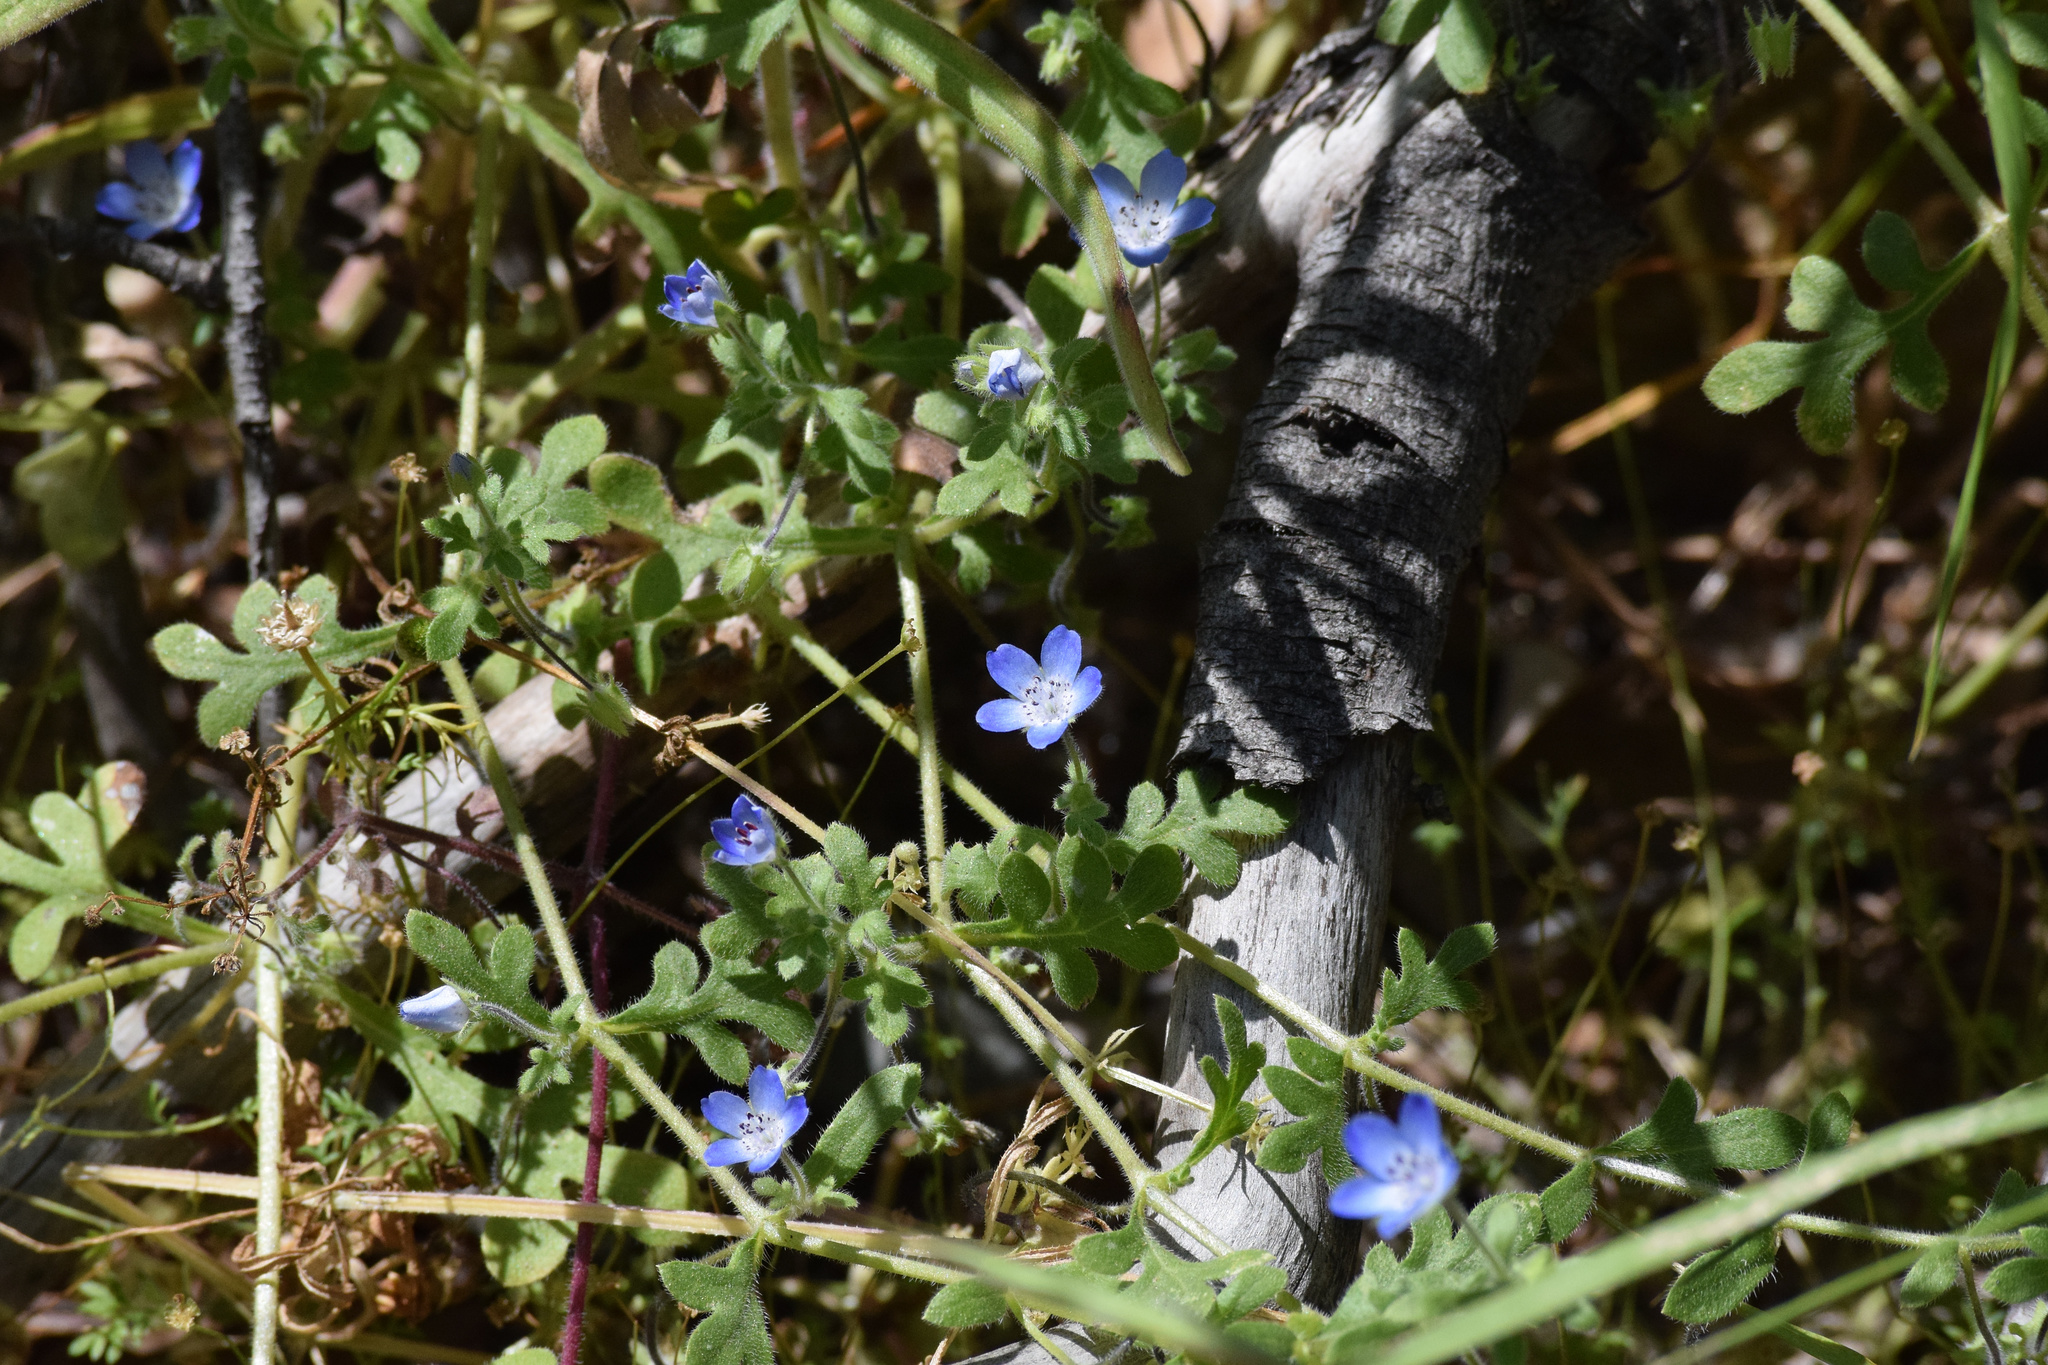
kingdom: Plantae
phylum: Tracheophyta
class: Magnoliopsida
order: Boraginales
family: Hydrophyllaceae
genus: Nemophila
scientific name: Nemophila menziesii
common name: Baby's-blue-eyes
